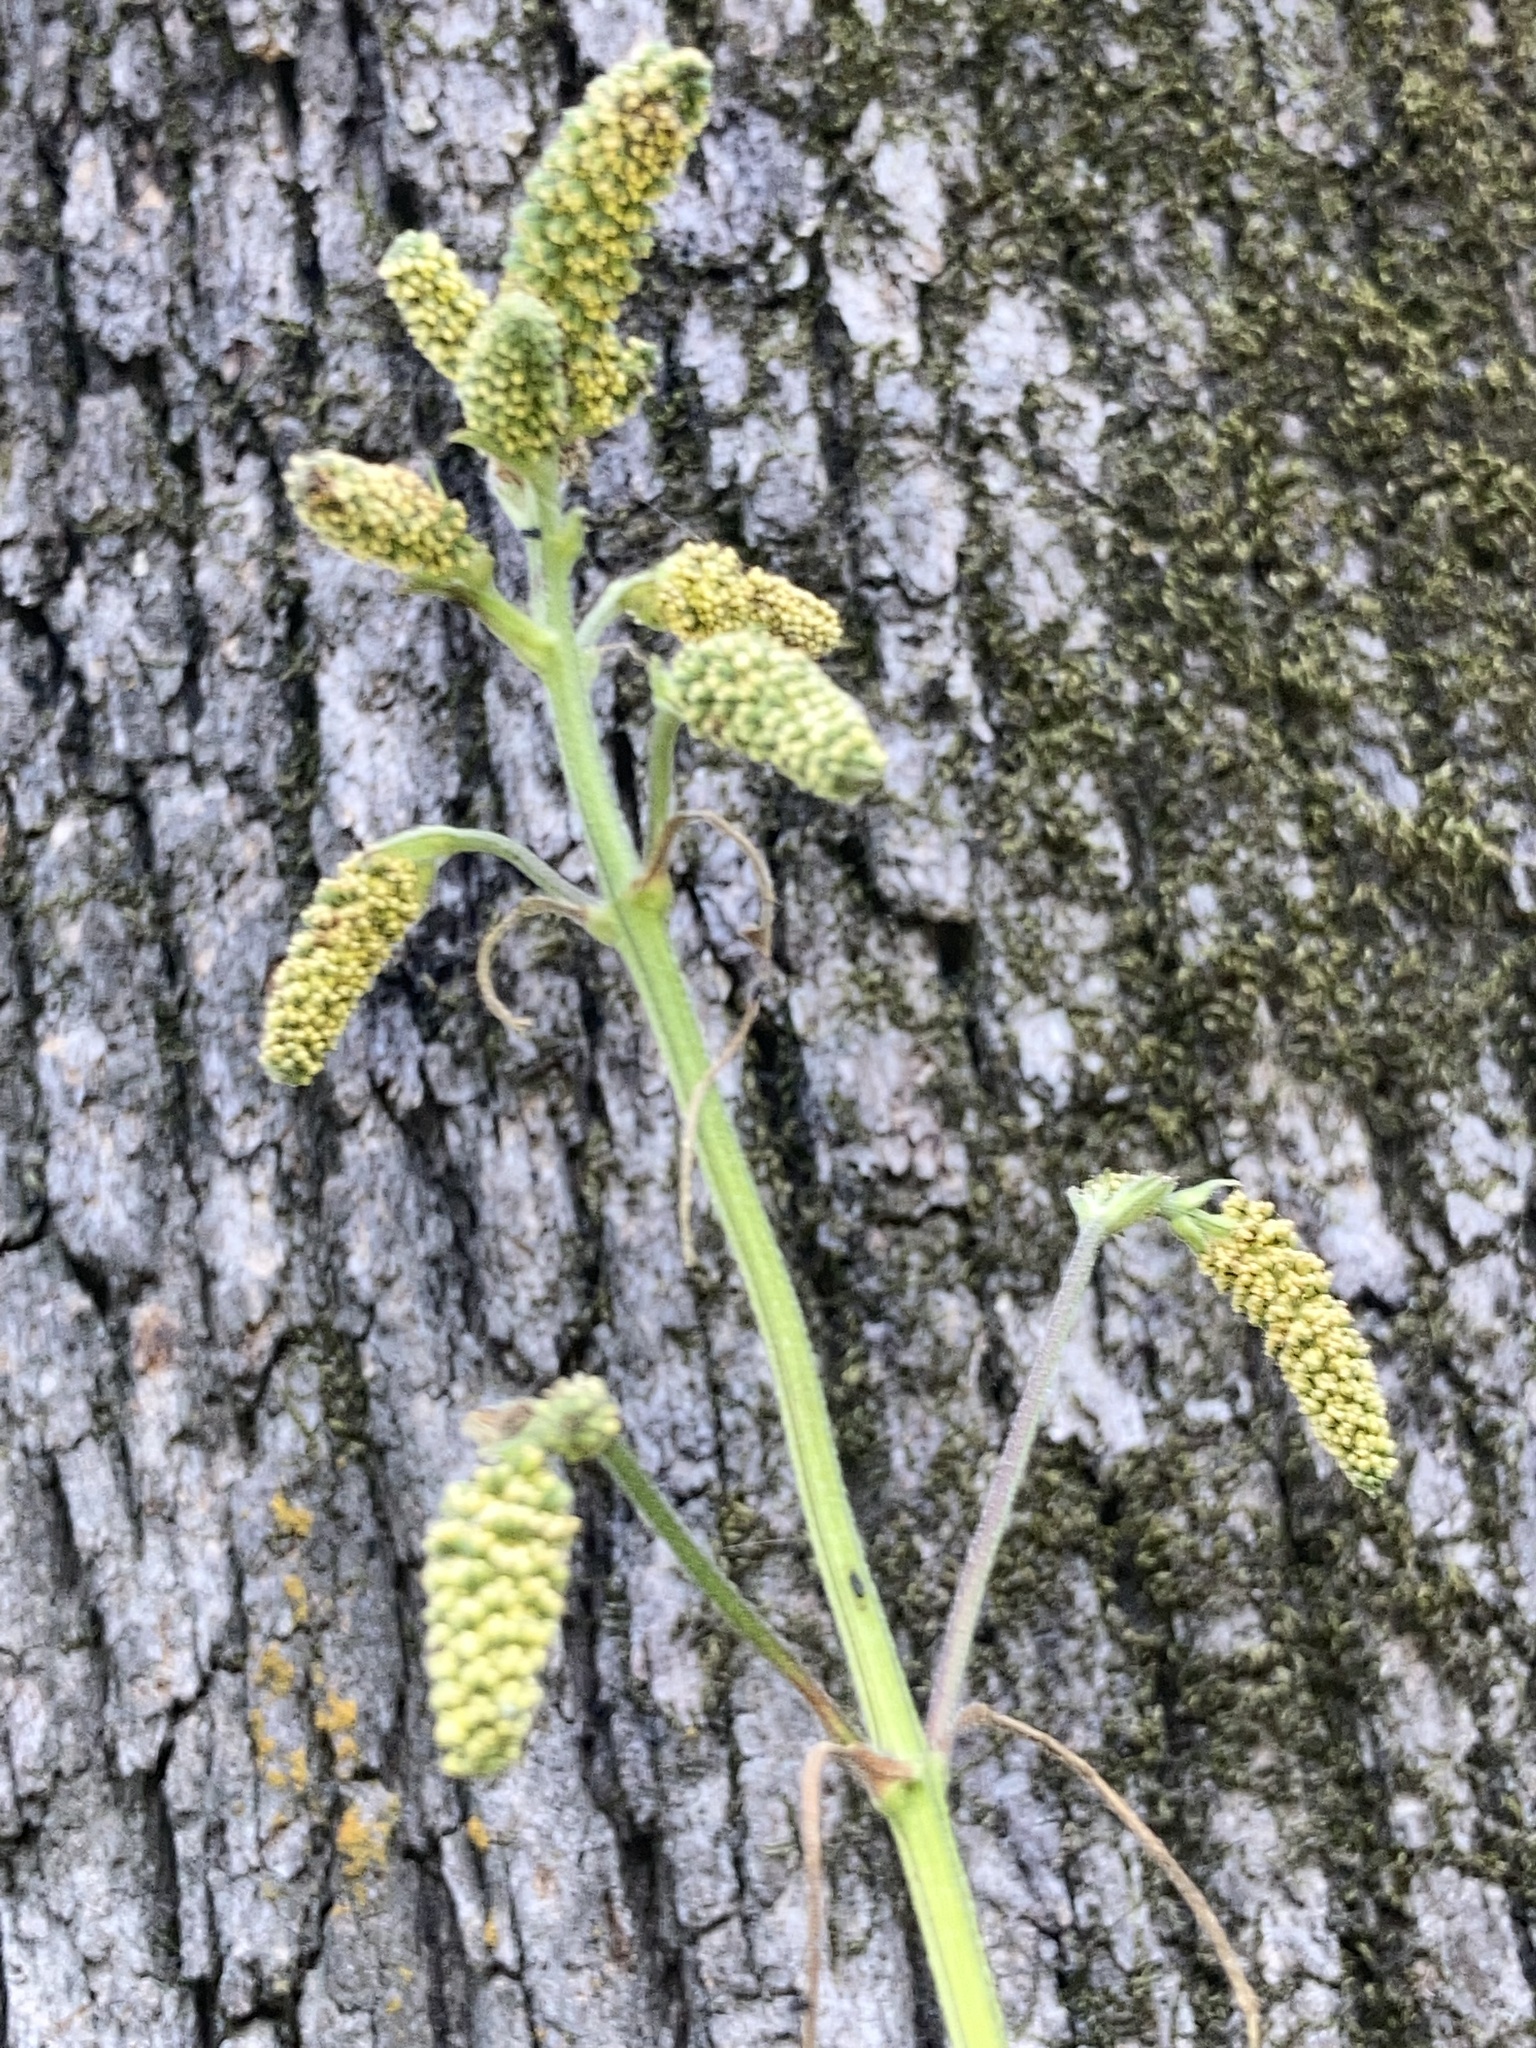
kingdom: Plantae
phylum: Tracheophyta
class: Magnoliopsida
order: Asterales
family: Asteraceae
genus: Ambrosia
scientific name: Ambrosia trifida
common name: Giant ragweed
